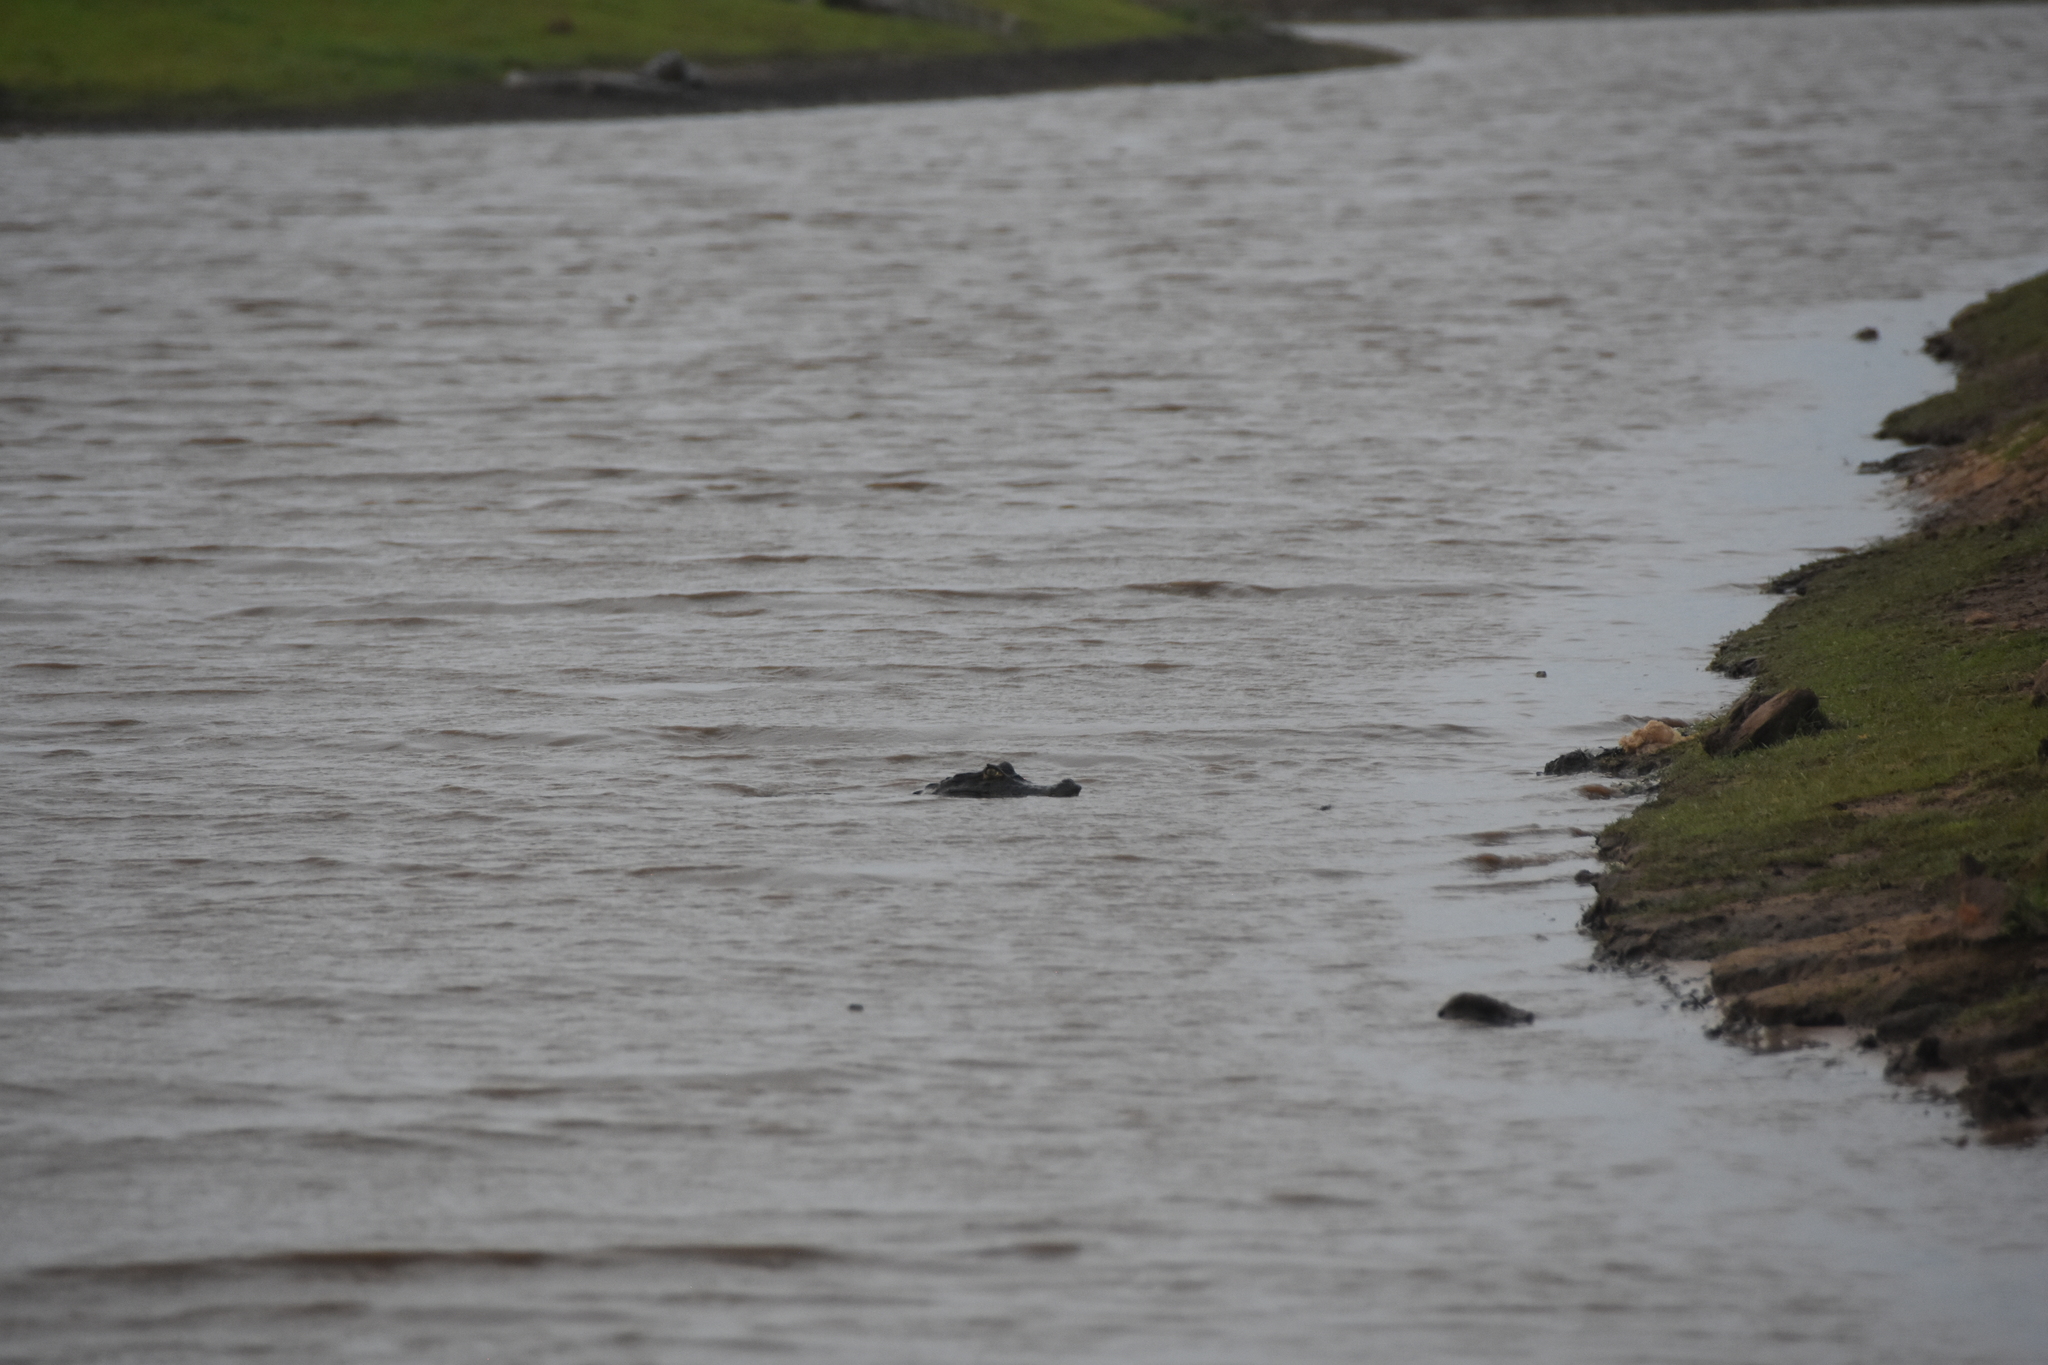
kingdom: Animalia
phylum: Chordata
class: Crocodylia
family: Alligatoridae
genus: Caiman
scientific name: Caiman crocodilus
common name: Common caiman
